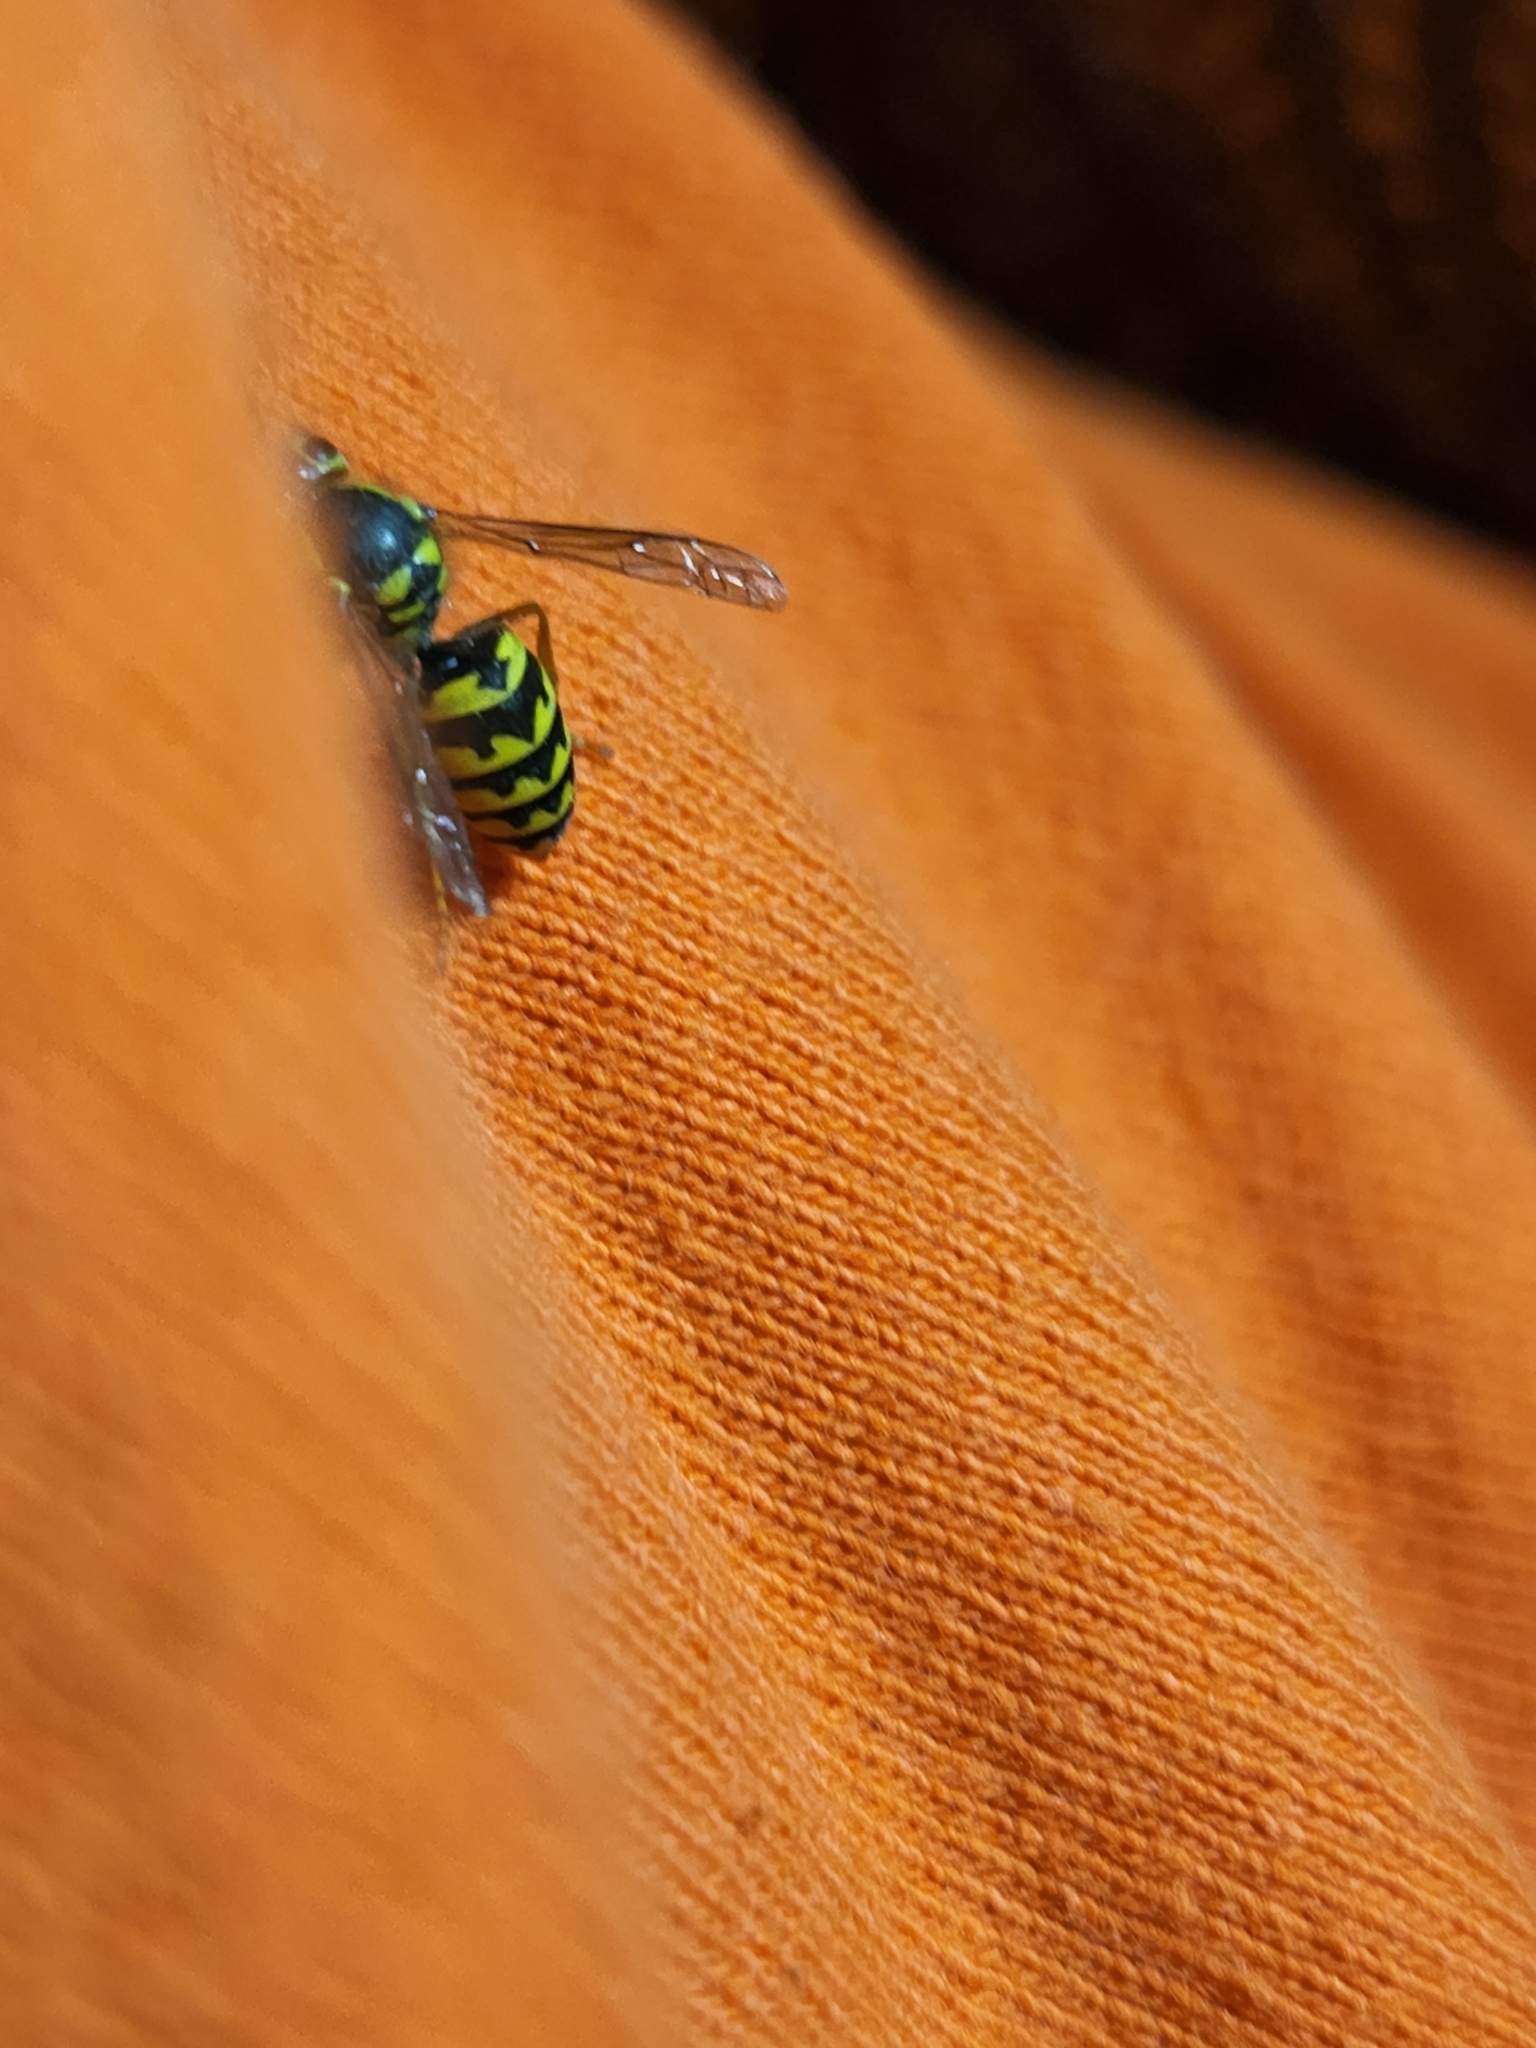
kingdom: Animalia
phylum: Arthropoda
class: Insecta
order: Hymenoptera
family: Vespidae
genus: Vespula
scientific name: Vespula pensylvanica
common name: Western yellowjacket
